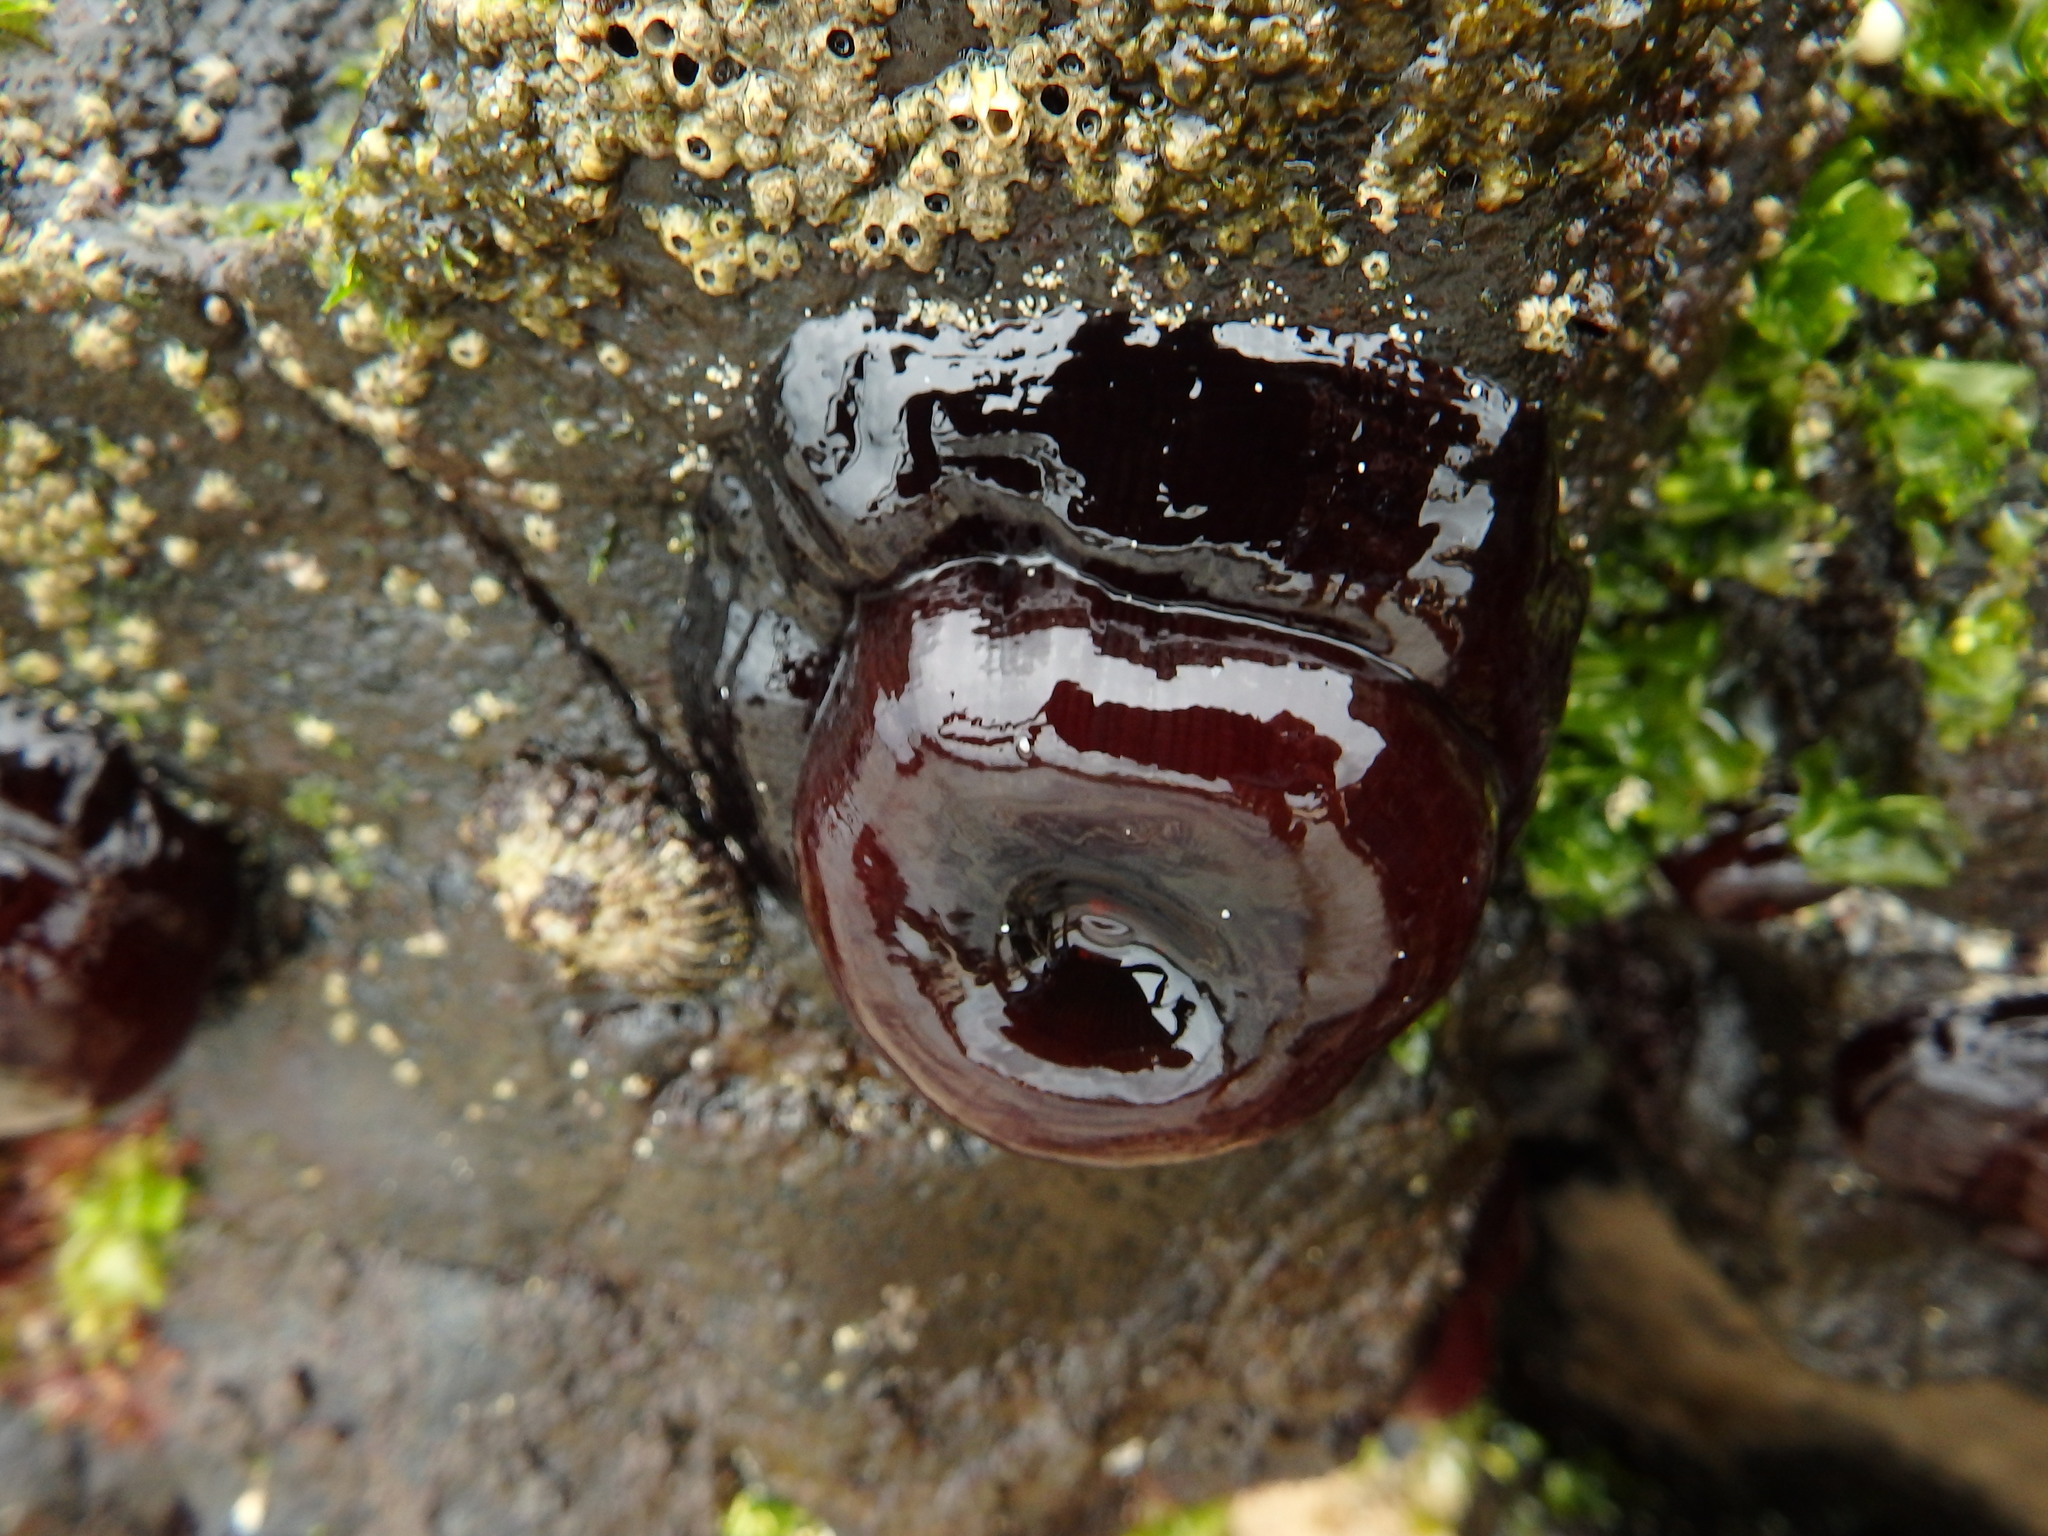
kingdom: Animalia
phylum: Cnidaria
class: Anthozoa
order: Actiniaria
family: Actiniidae
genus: Actinia
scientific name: Actinia tabella
